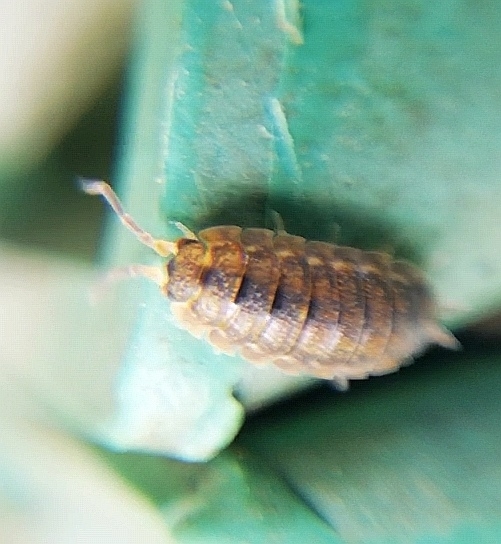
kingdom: Animalia
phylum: Arthropoda
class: Malacostraca
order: Isopoda
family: Porcellionidae
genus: Porcellio
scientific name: Porcellio scaber
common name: Common rough woodlouse
